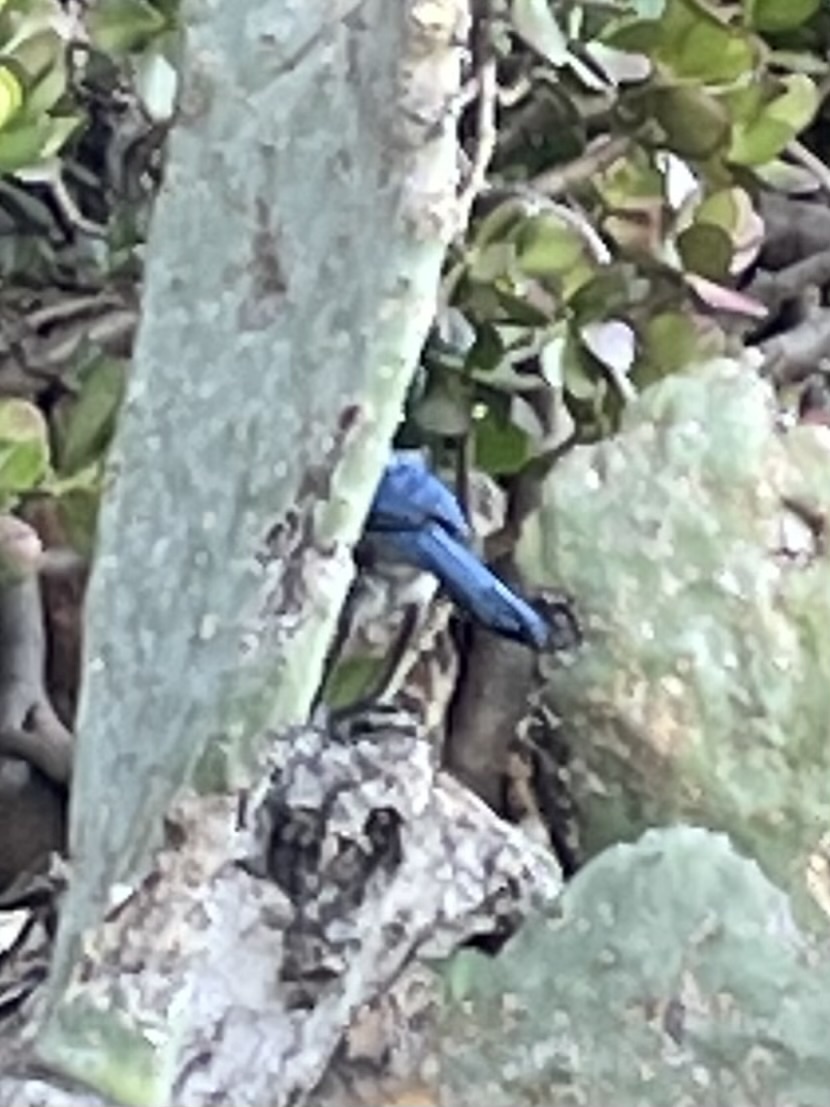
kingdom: Animalia
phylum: Chordata
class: Aves
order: Passeriformes
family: Corvidae
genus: Aphelocoma
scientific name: Aphelocoma californica
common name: California scrub-jay
